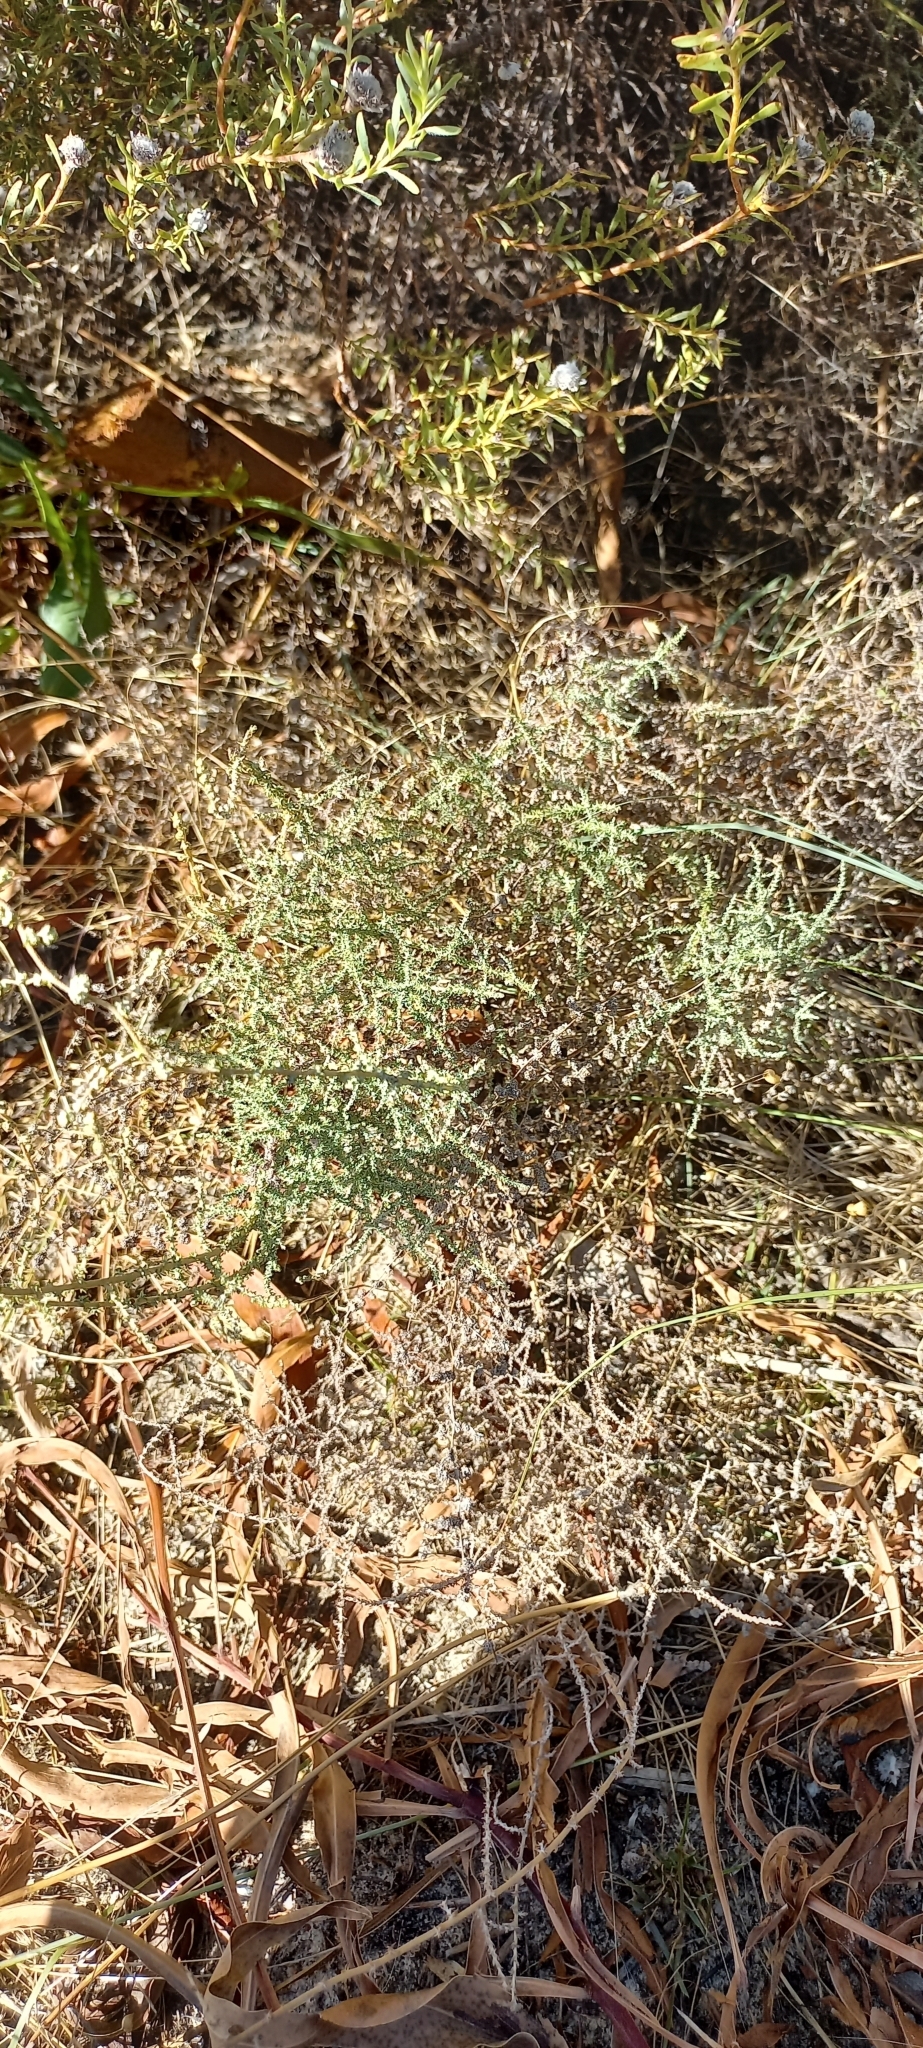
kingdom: Plantae
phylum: Tracheophyta
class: Magnoliopsida
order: Asterales
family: Asteraceae
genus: Seriphium
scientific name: Seriphium plumosum
